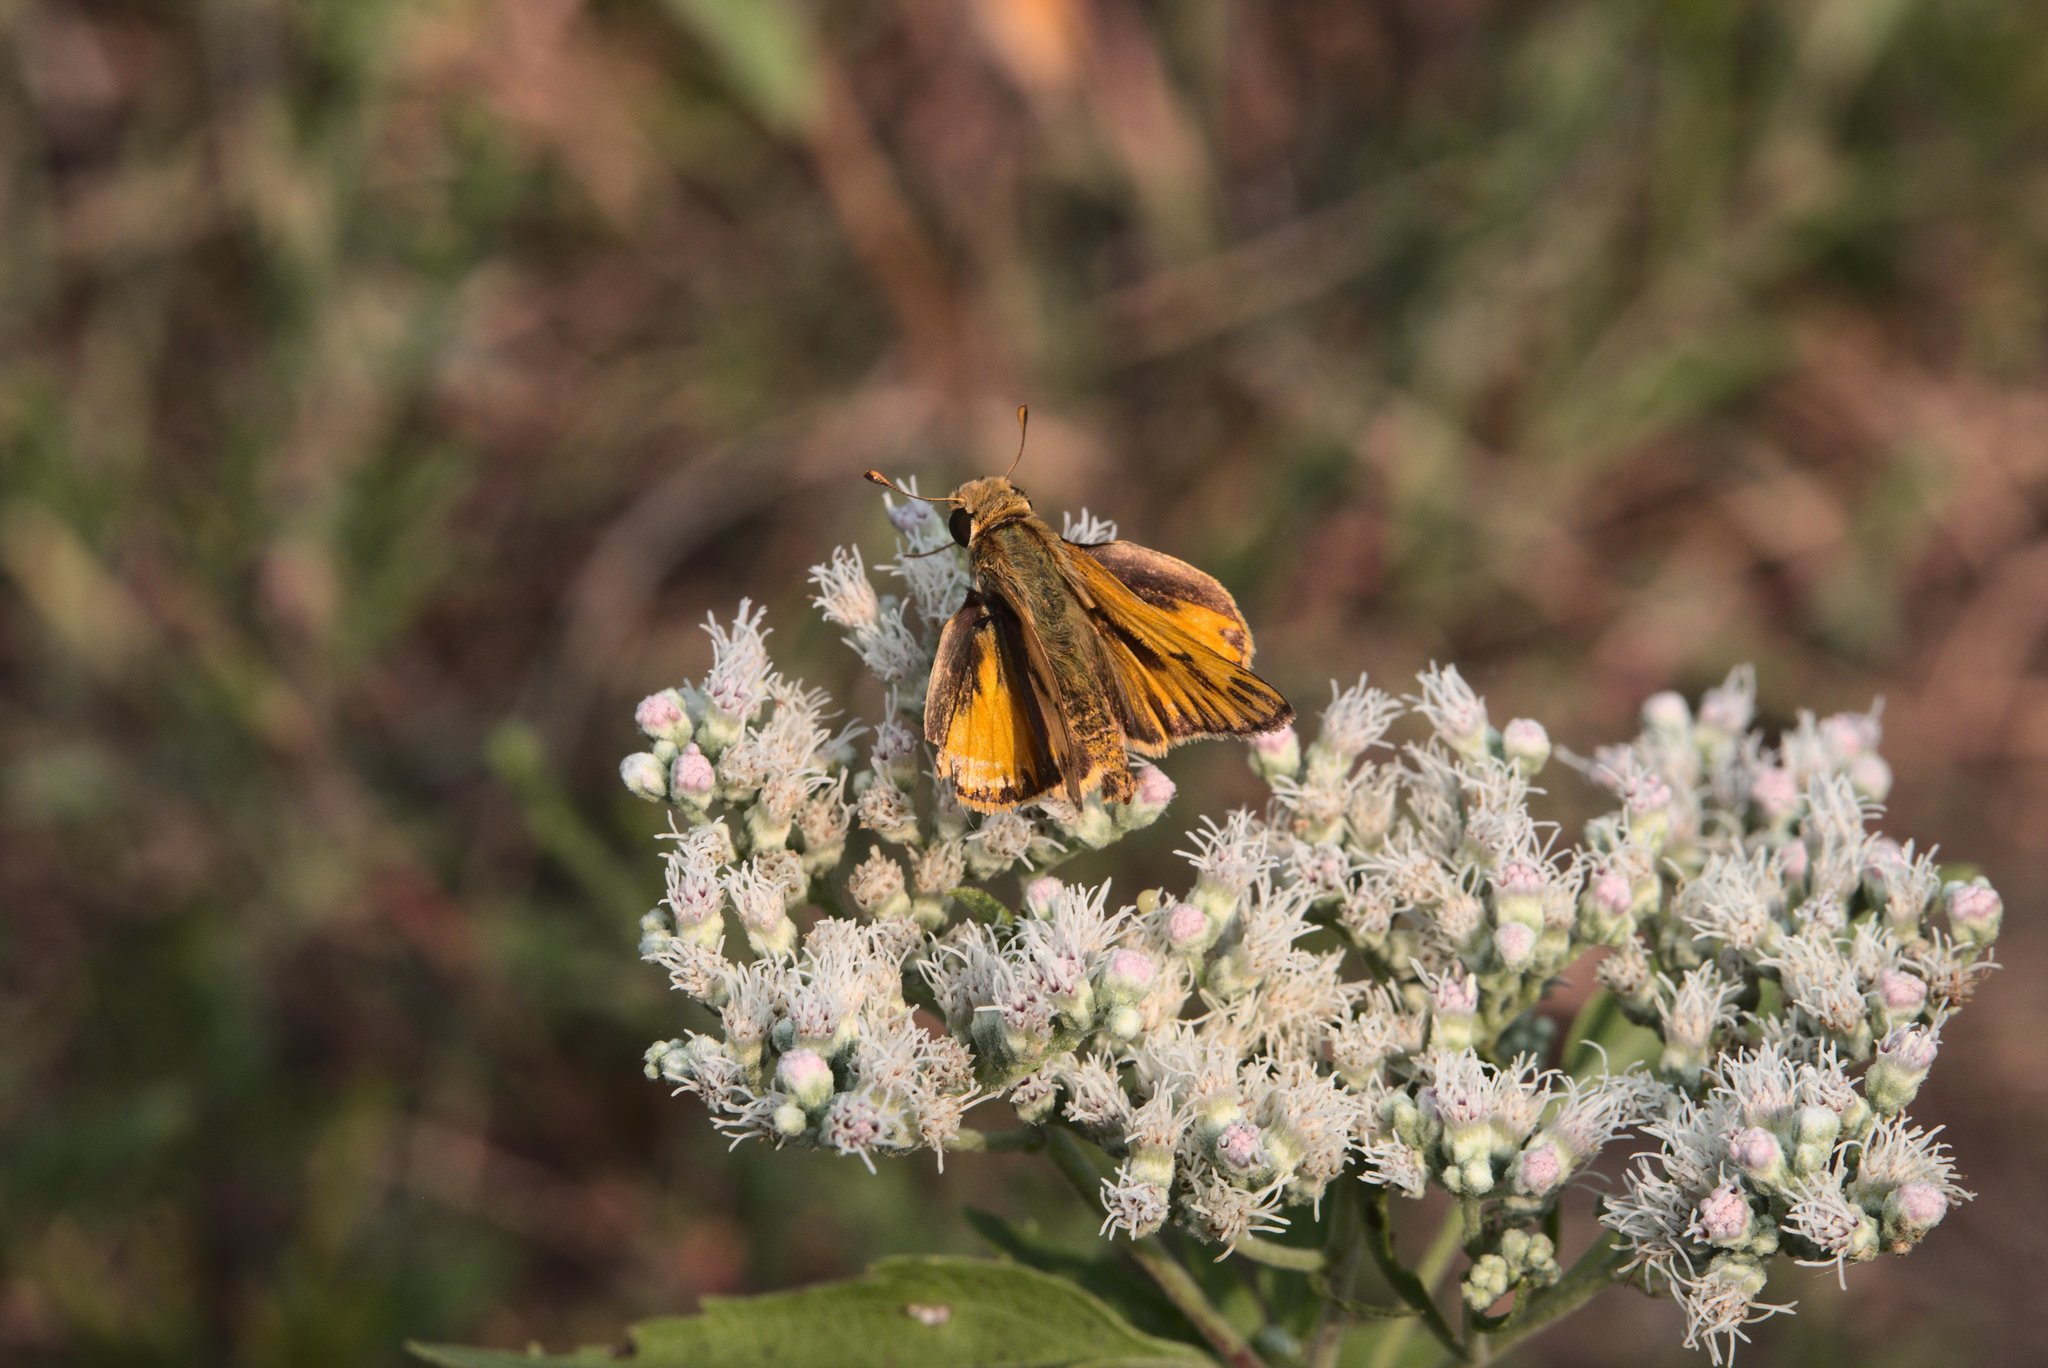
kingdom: Animalia
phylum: Arthropoda
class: Insecta
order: Lepidoptera
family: Hesperiidae
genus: Hylephila
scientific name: Hylephila phyleus
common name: Fiery skipper
